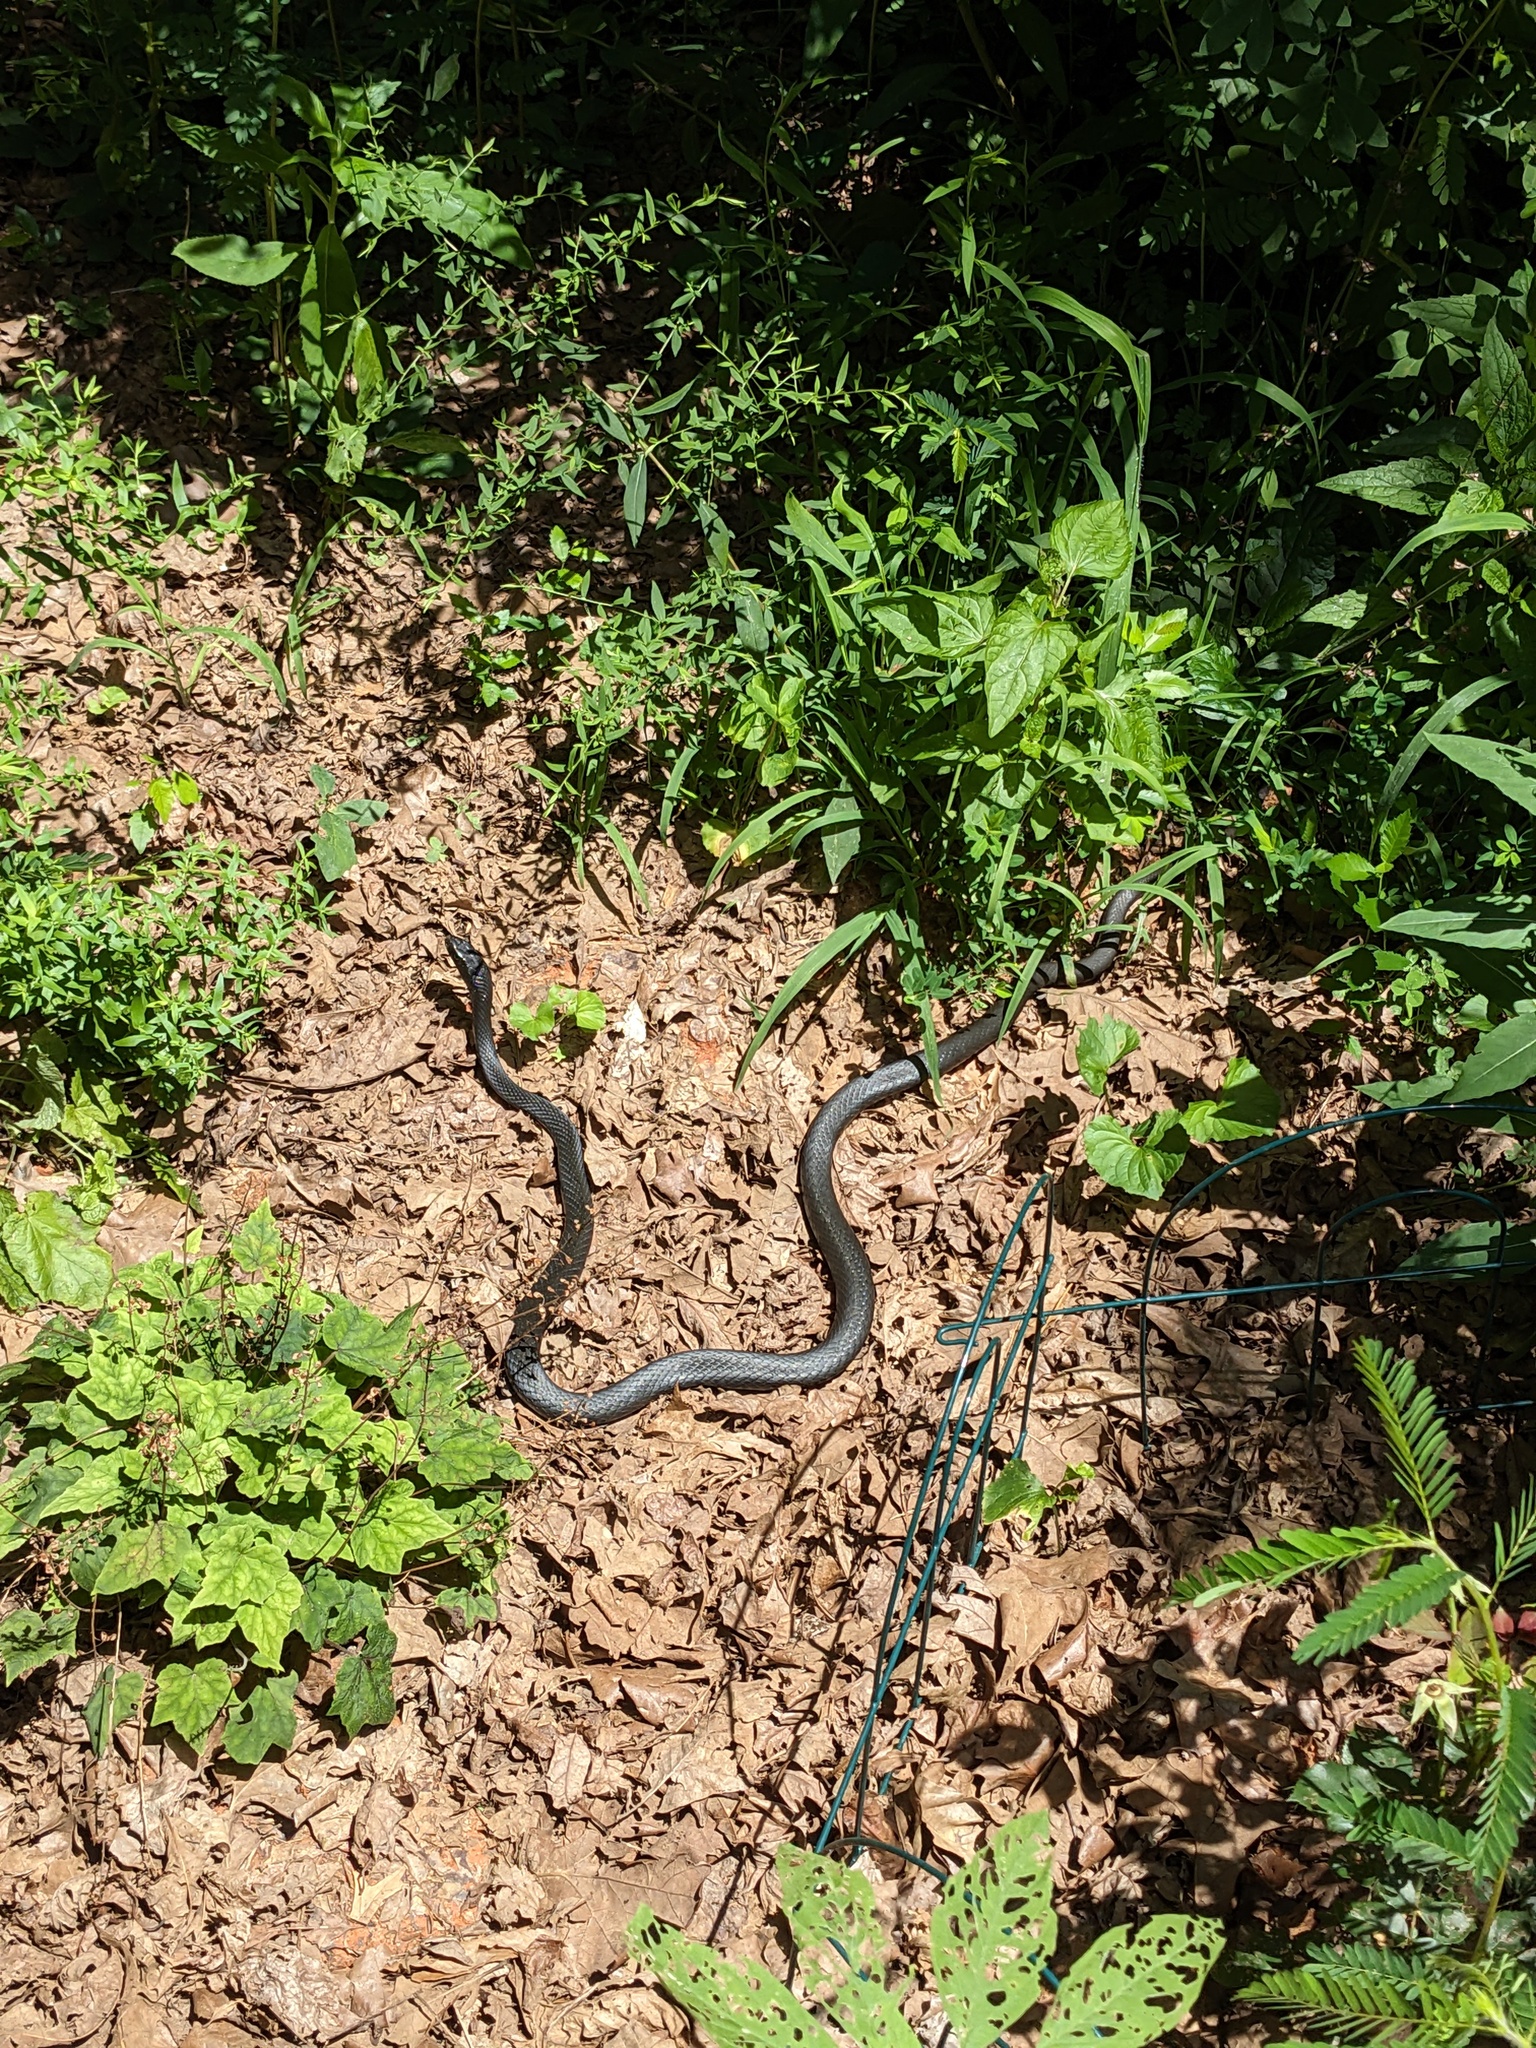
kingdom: Animalia
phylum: Chordata
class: Squamata
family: Colubridae
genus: Coluber
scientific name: Coluber constrictor
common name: Eastern racer
